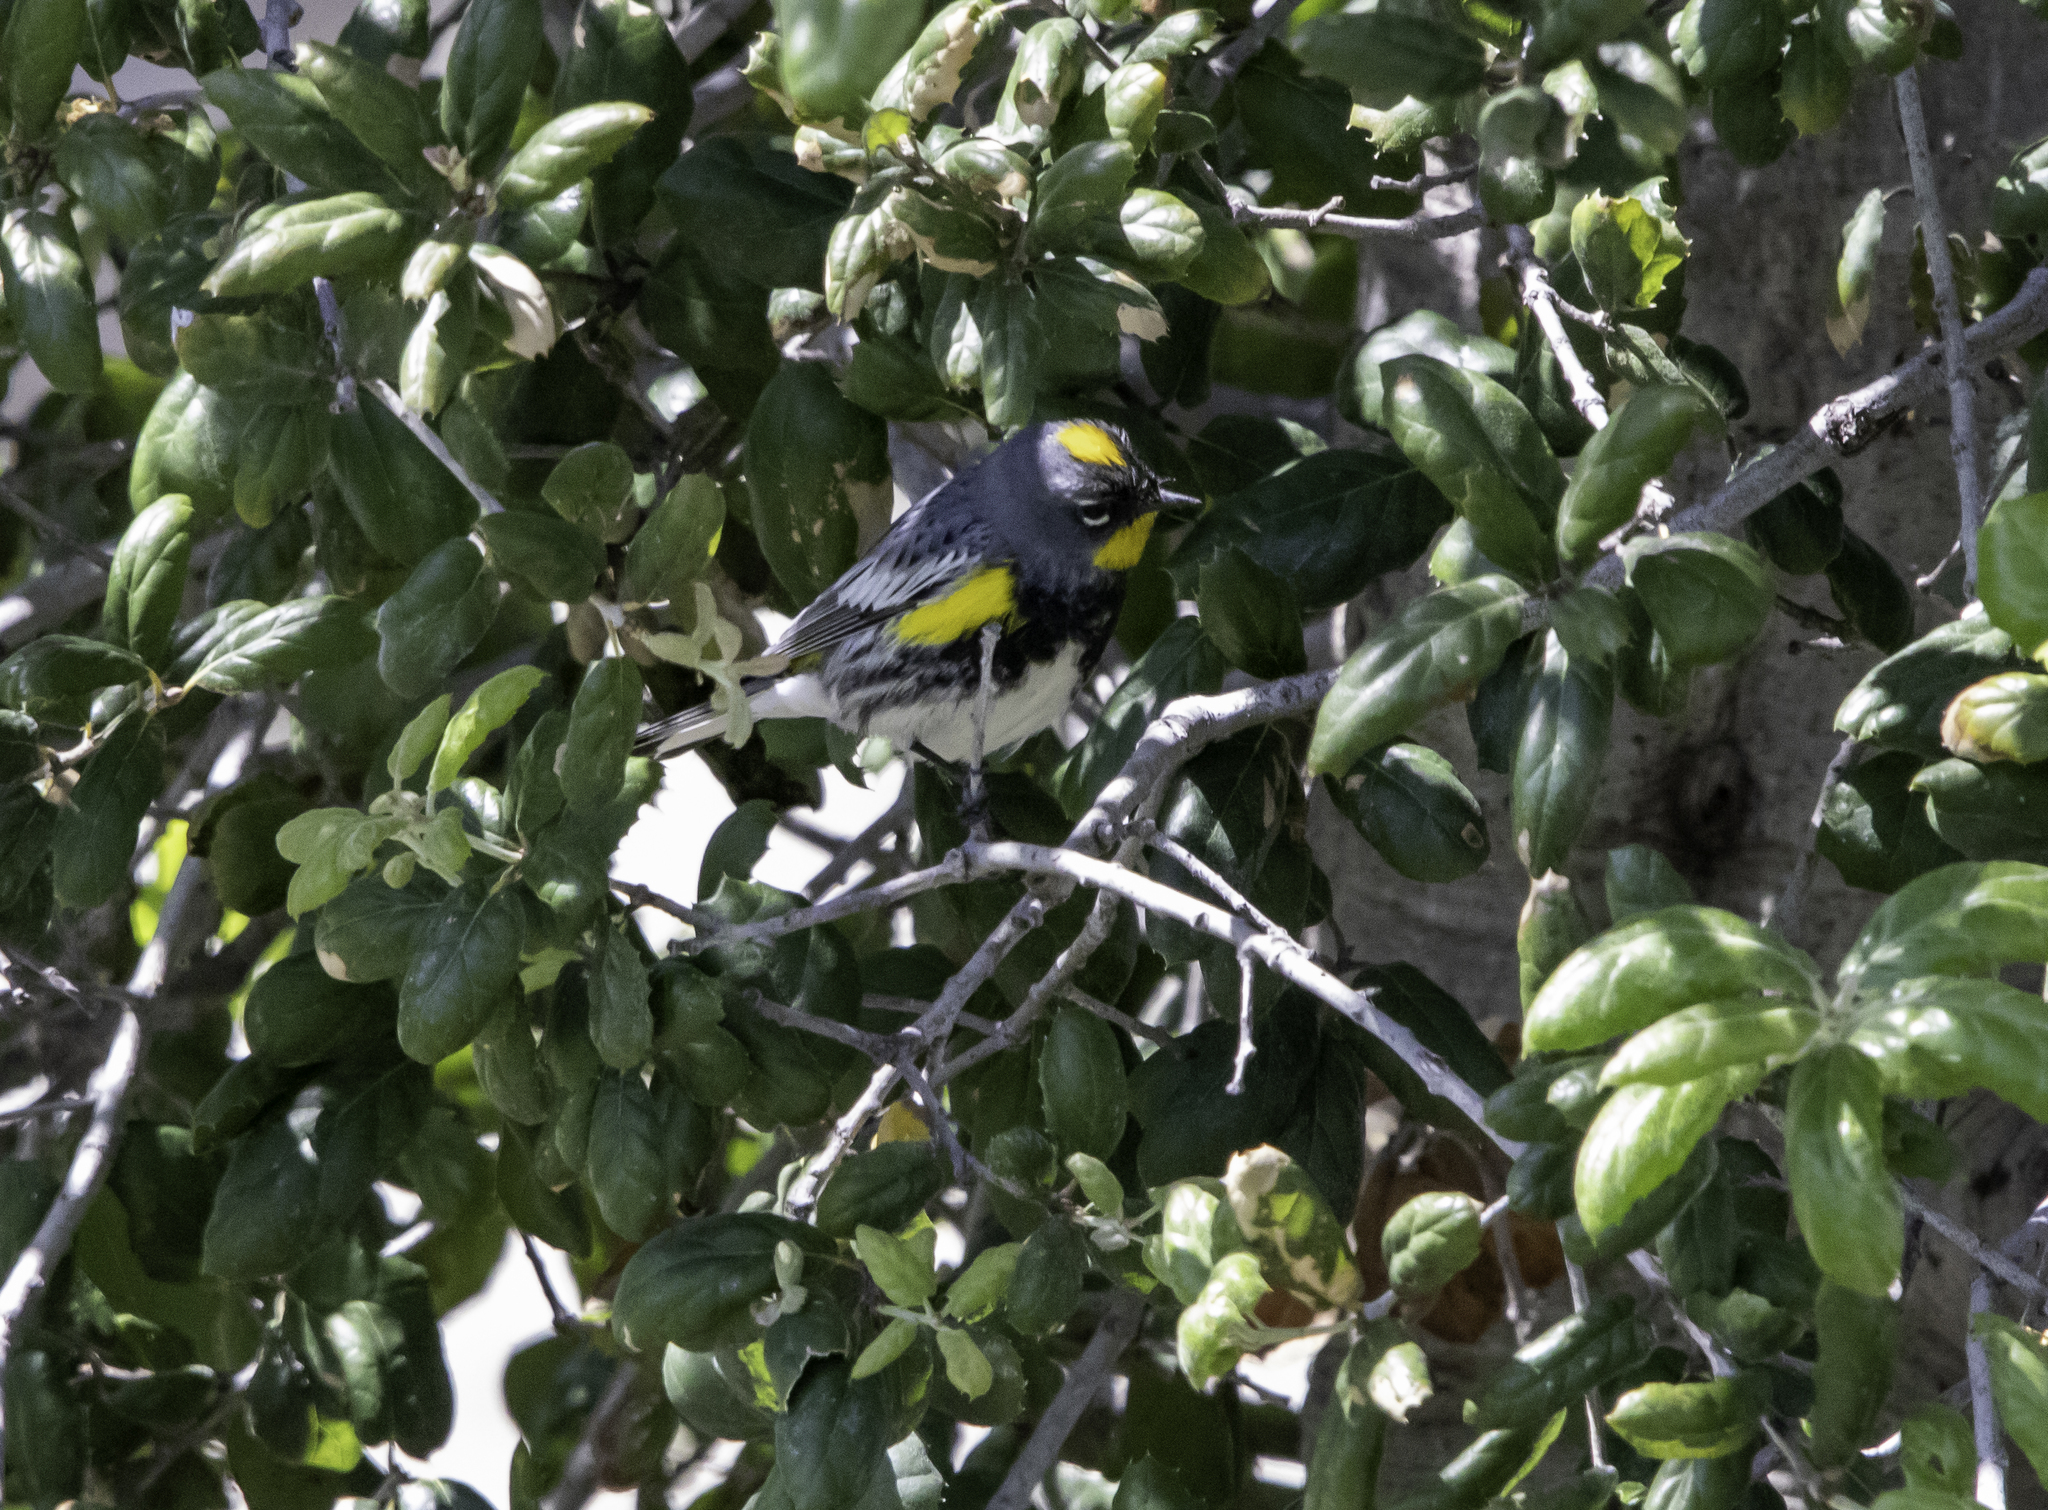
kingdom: Animalia
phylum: Chordata
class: Aves
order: Passeriformes
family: Parulidae
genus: Setophaga
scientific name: Setophaga auduboni
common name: Audubon's warbler
